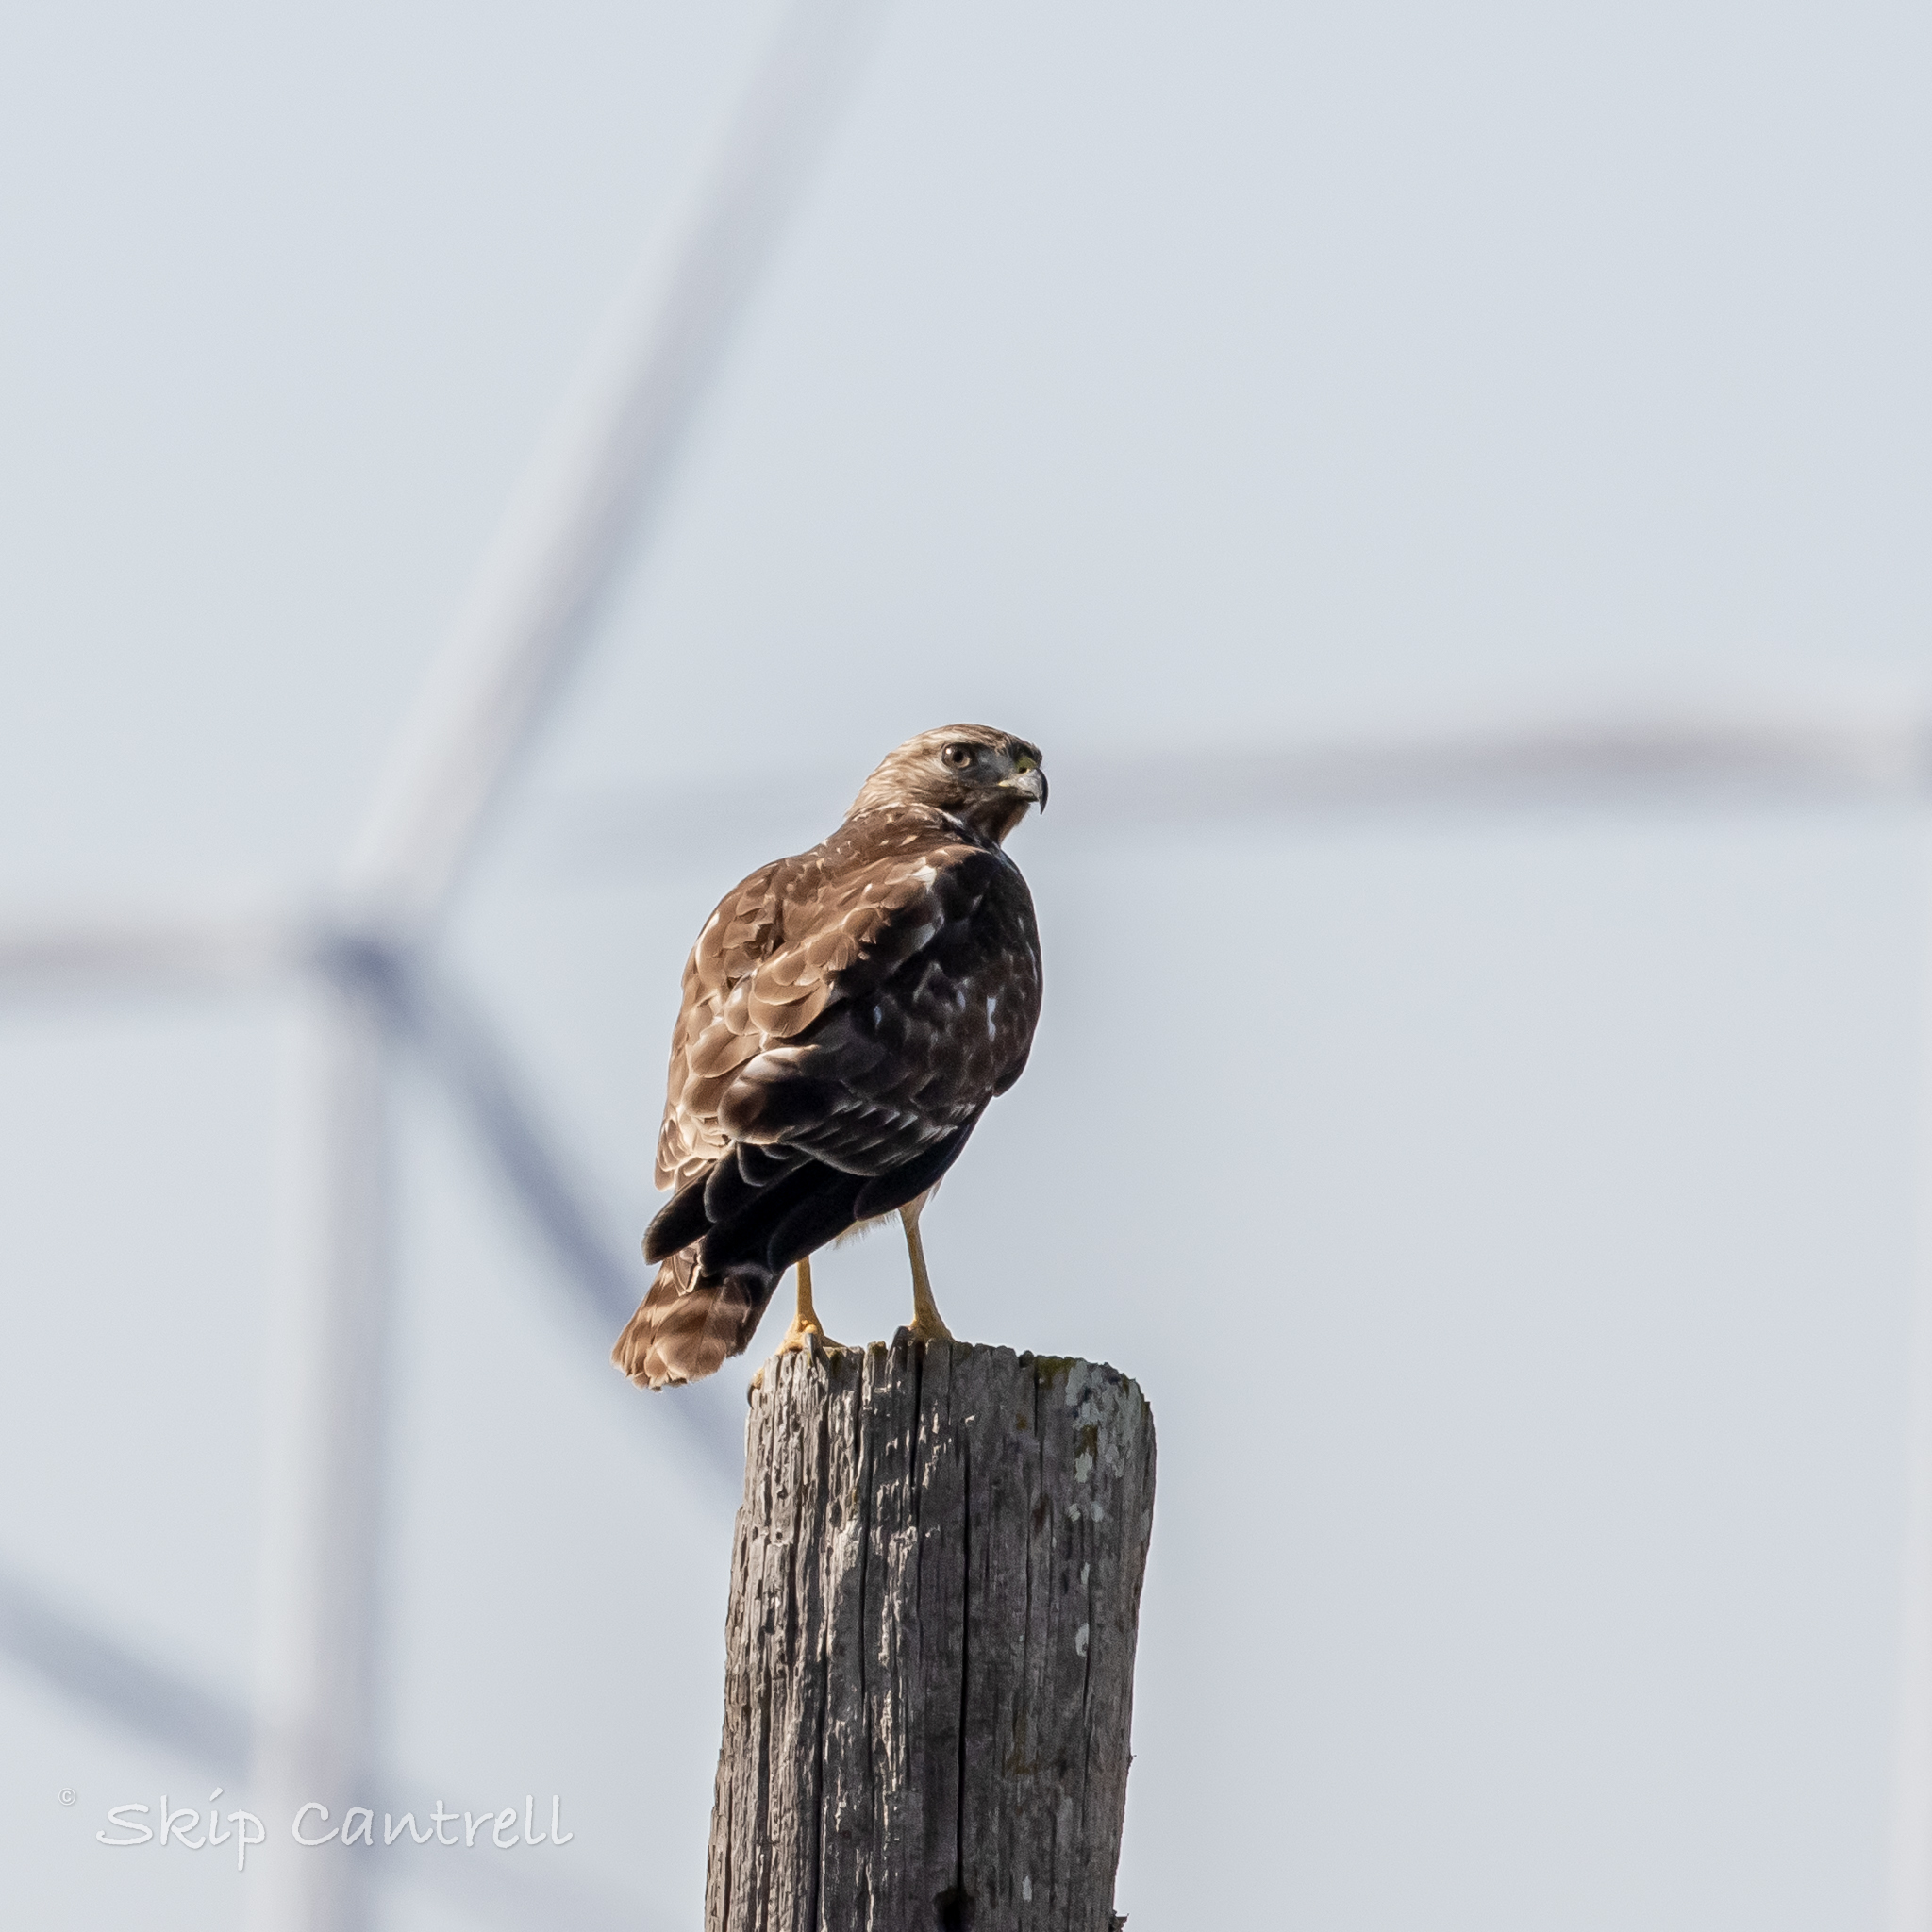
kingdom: Animalia
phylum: Chordata
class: Aves
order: Accipitriformes
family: Accipitridae
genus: Buteo
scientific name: Buteo lineatus
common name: Red-shouldered hawk
